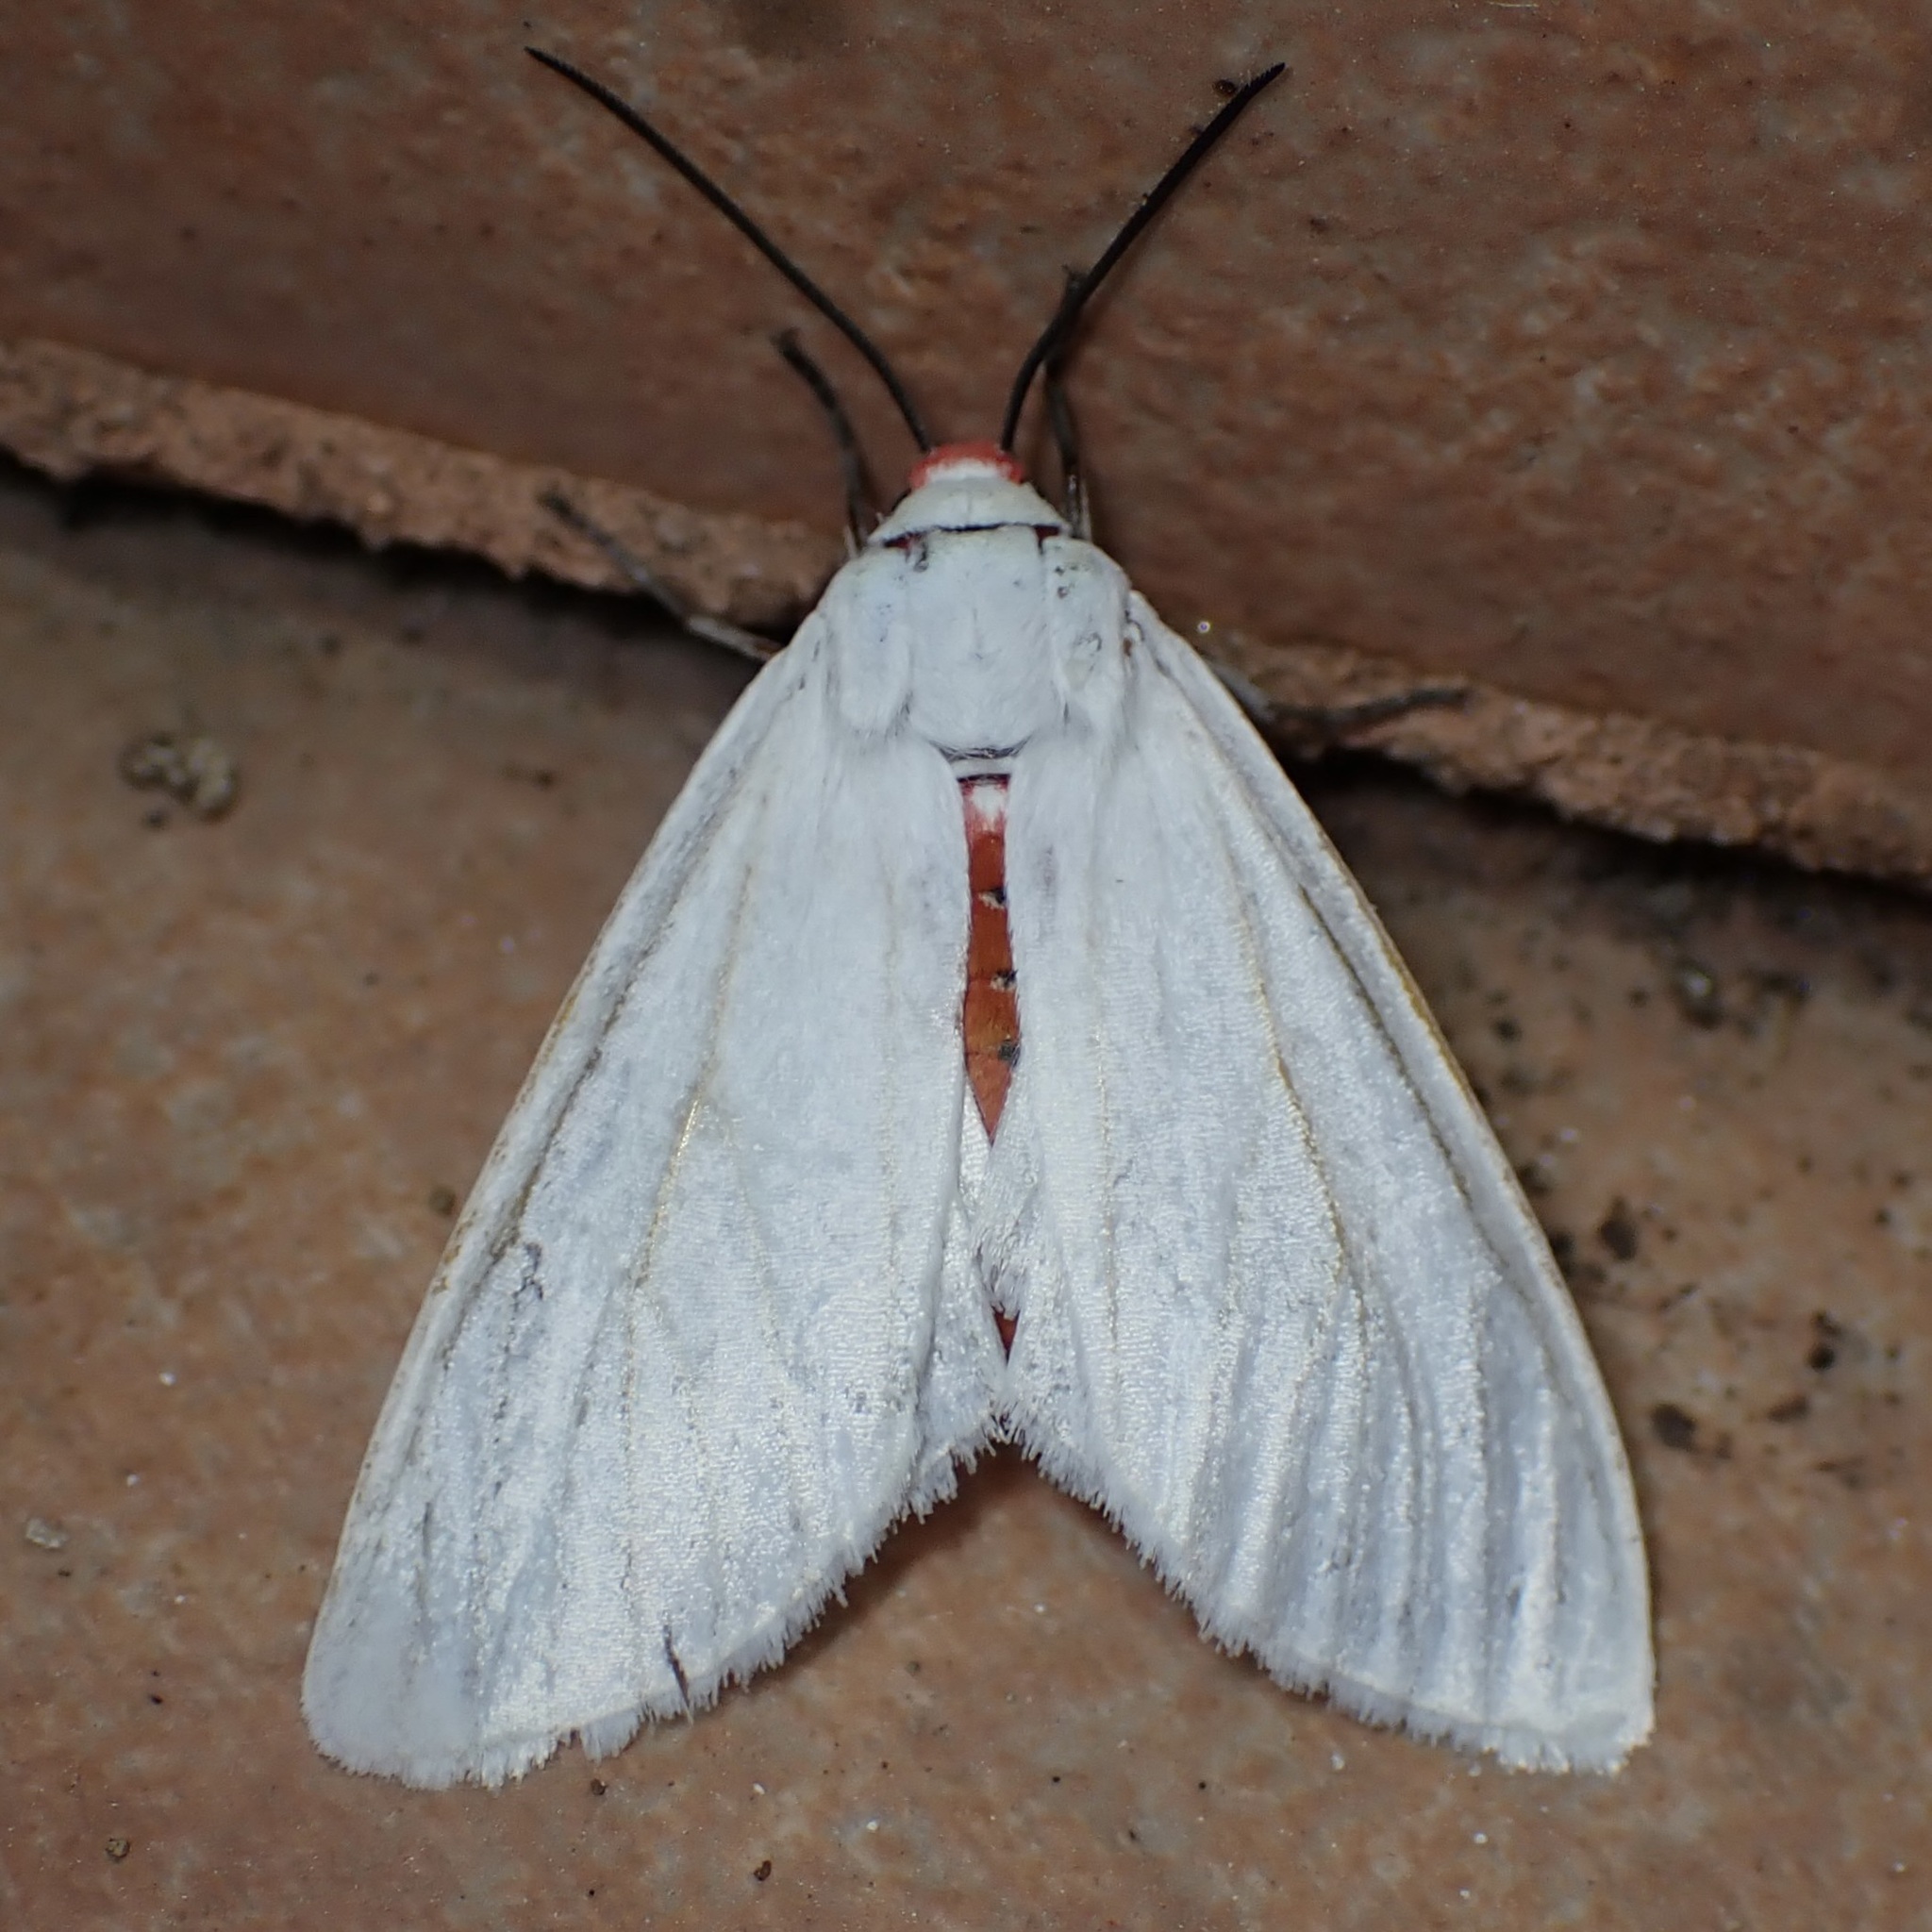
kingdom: Animalia
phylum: Arthropoda
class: Insecta
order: Lepidoptera
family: Erebidae
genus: Pygarctia
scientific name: Pygarctia roseicapitis
